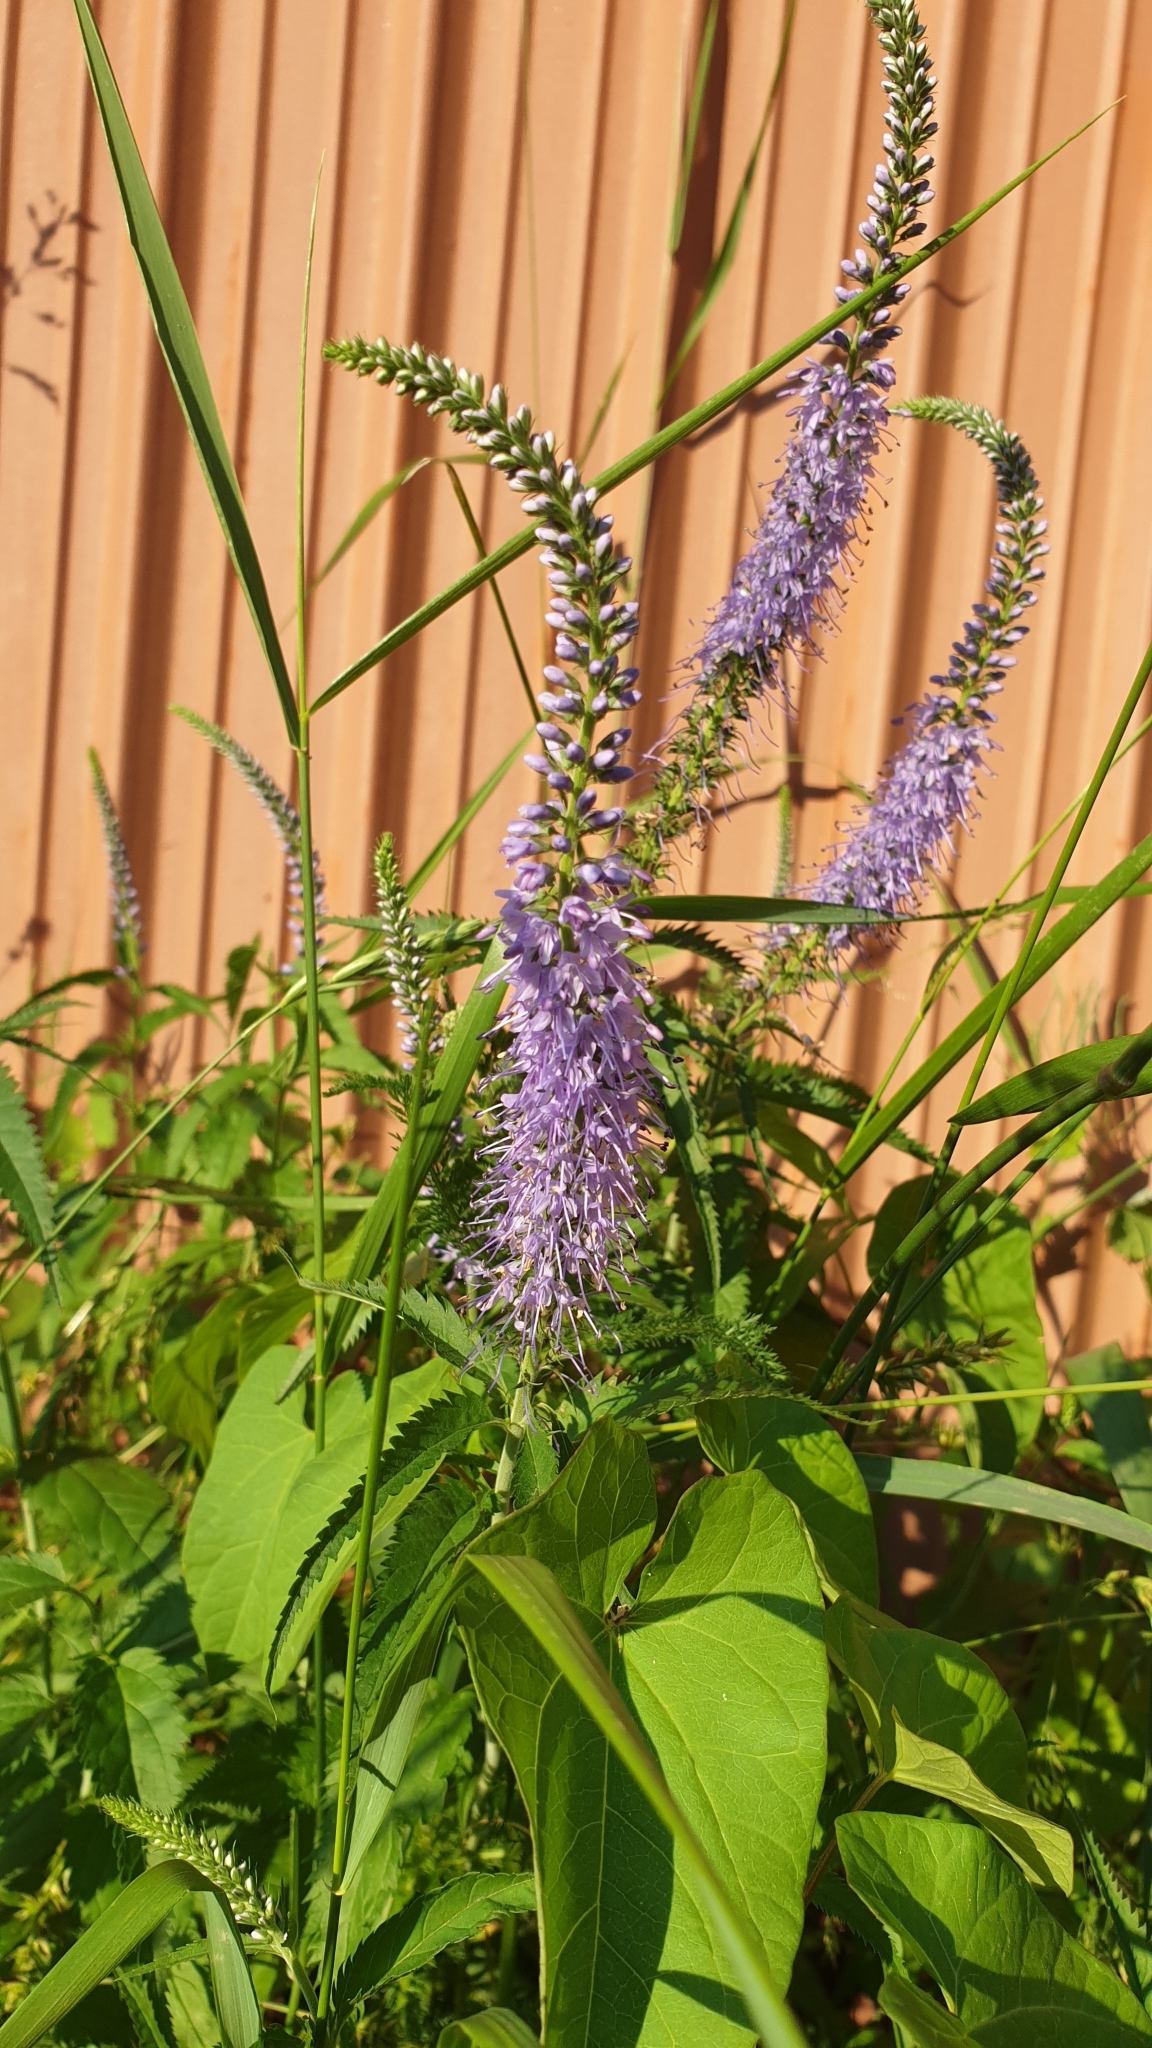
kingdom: Plantae
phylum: Tracheophyta
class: Magnoliopsida
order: Lamiales
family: Plantaginaceae
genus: Veronica
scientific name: Veronica longifolia
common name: Garden speedwell
